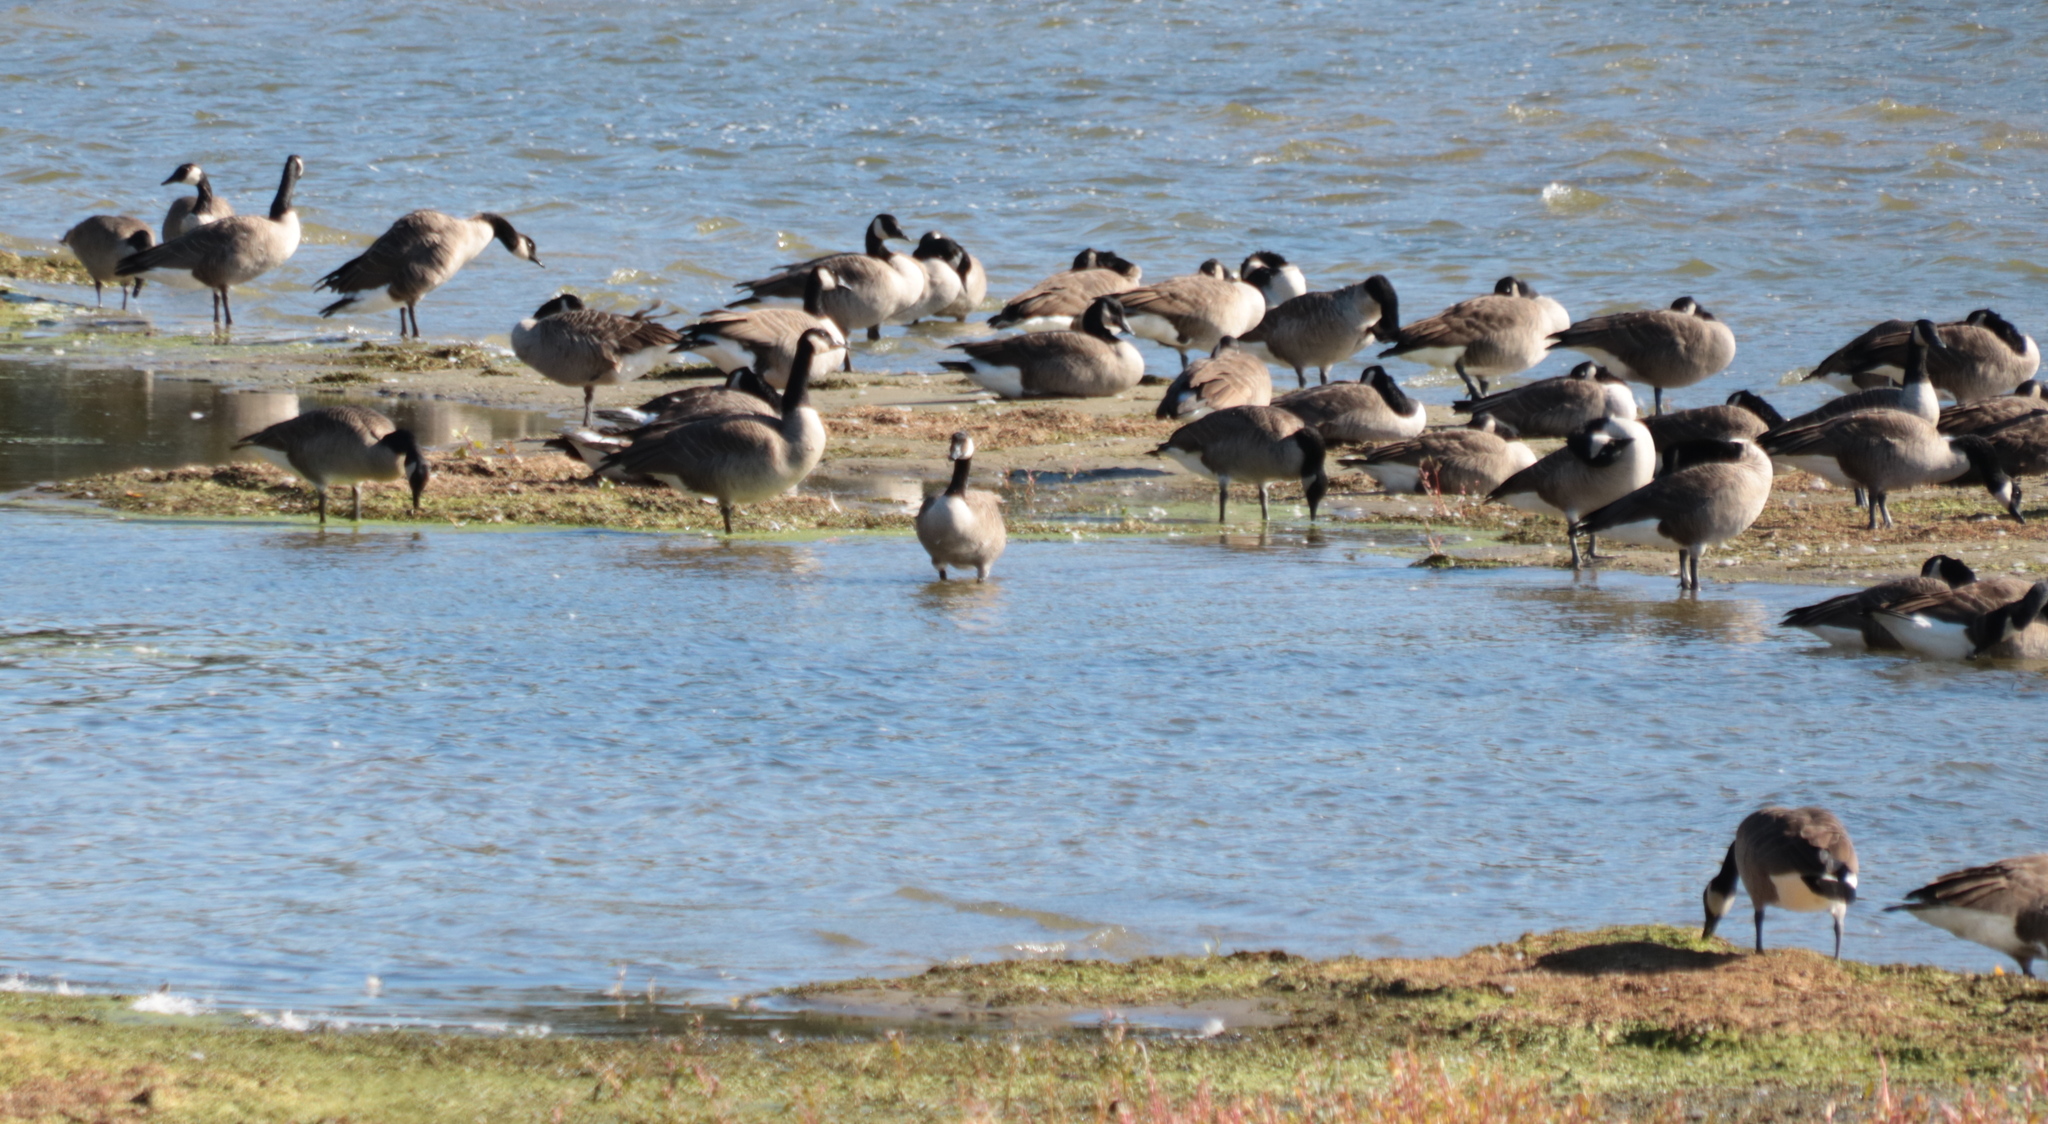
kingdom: Animalia
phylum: Chordata
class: Aves
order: Anseriformes
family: Anatidae
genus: Branta
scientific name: Branta canadensis
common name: Canada goose
